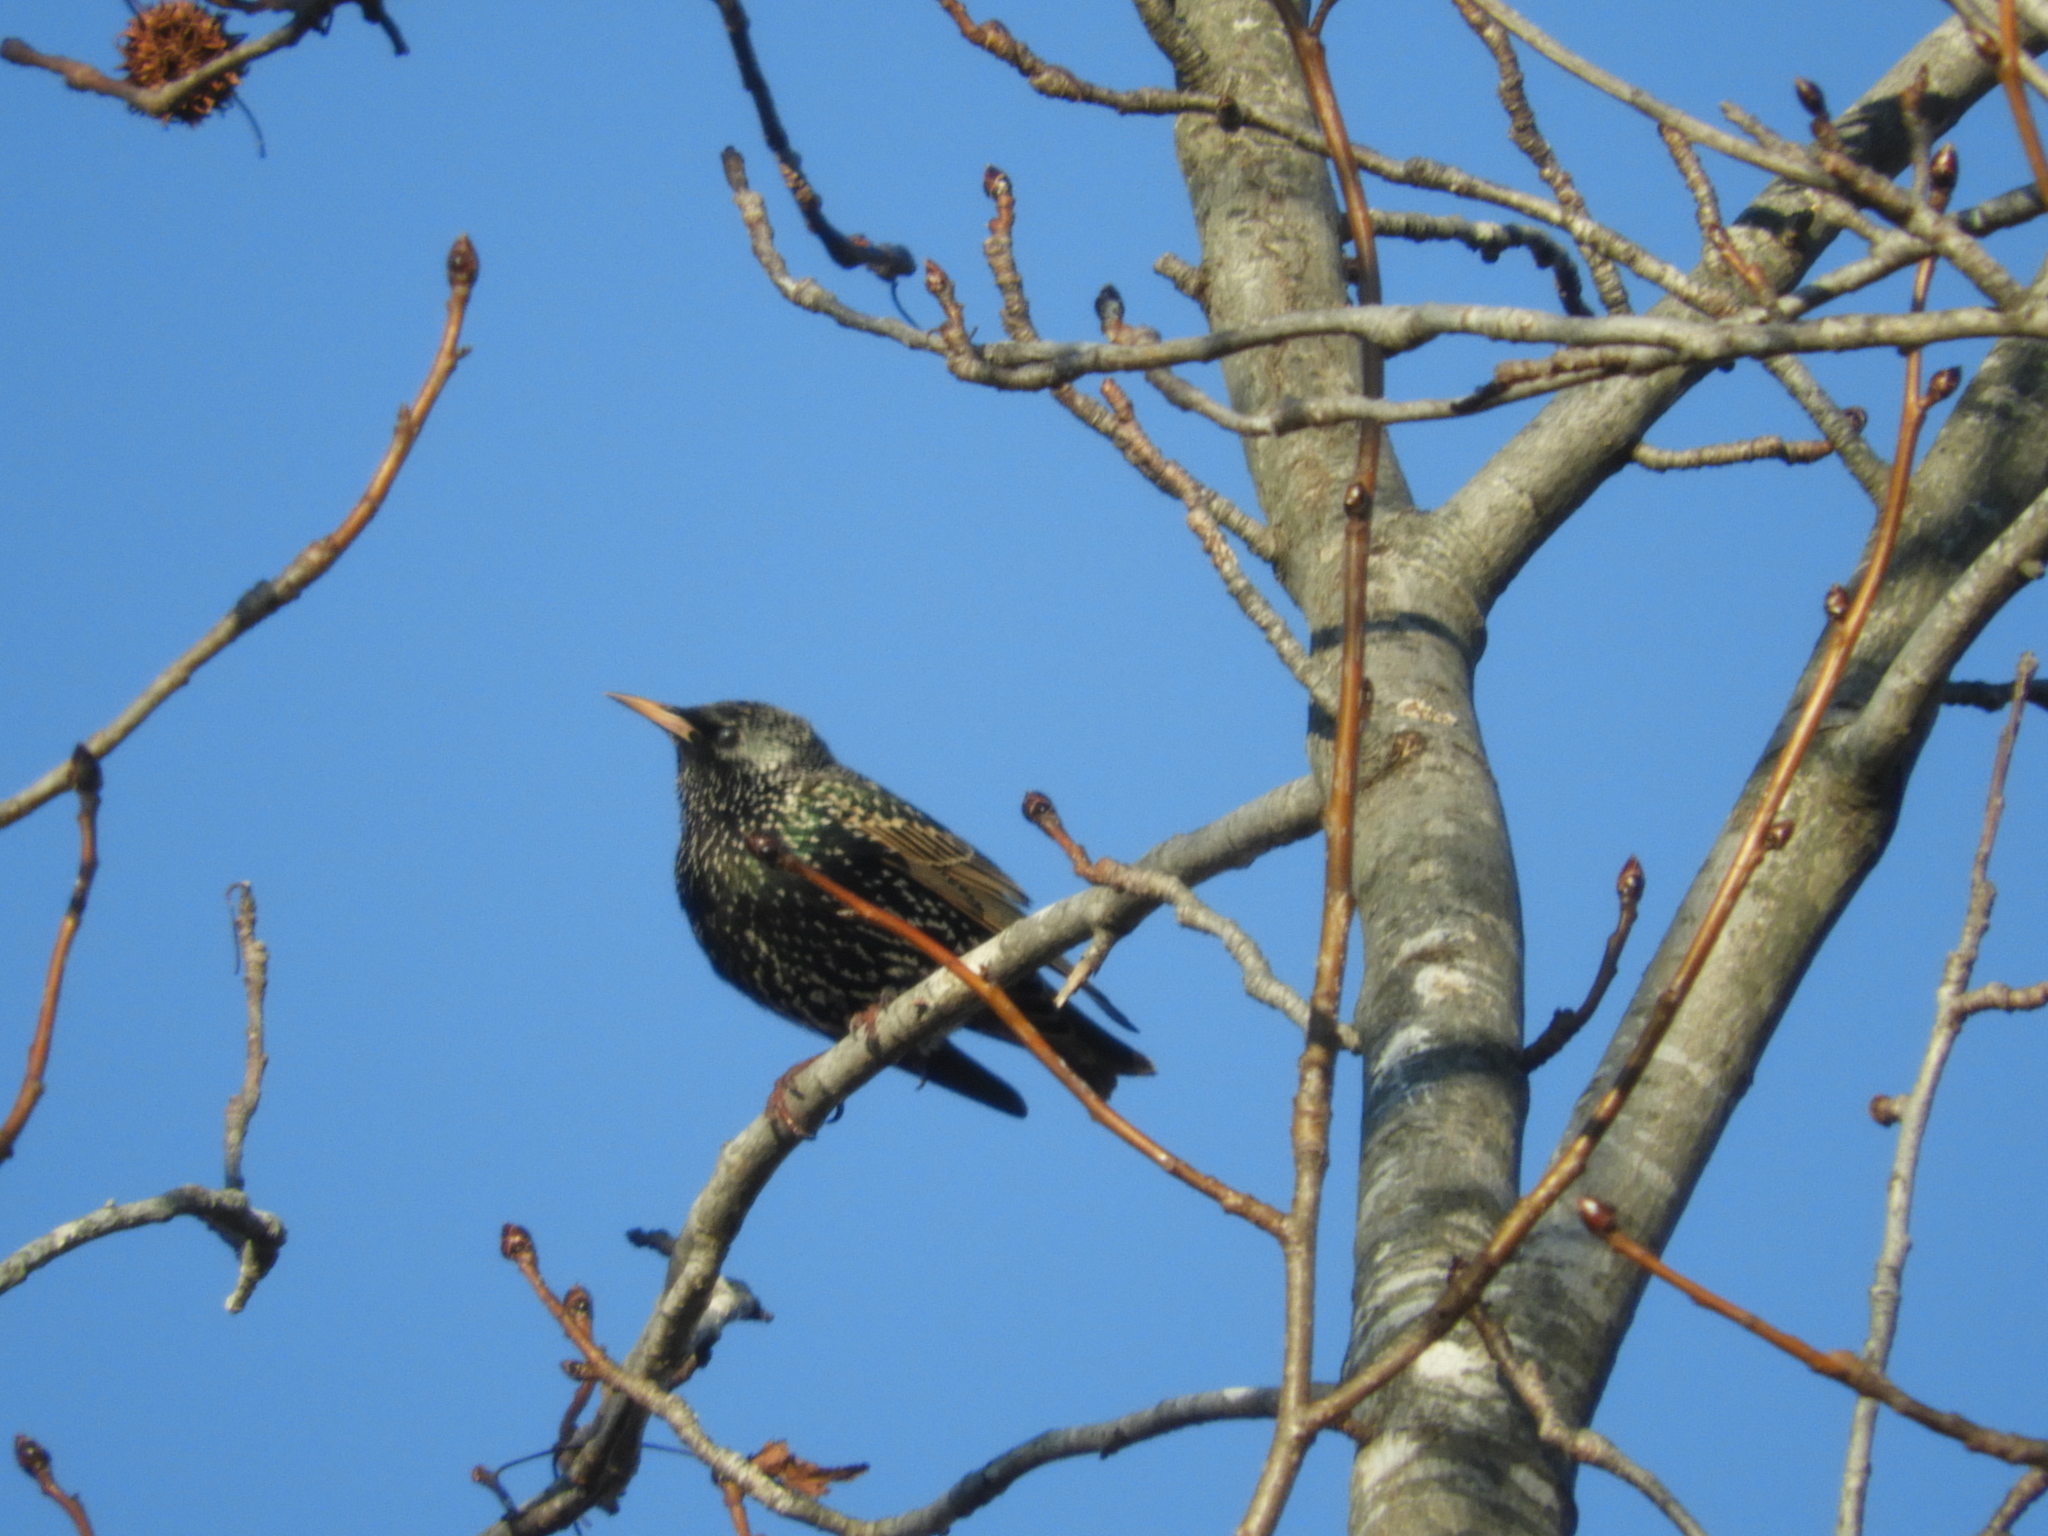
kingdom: Animalia
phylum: Chordata
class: Aves
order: Passeriformes
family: Sturnidae
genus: Sturnus
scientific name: Sturnus vulgaris
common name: Common starling
